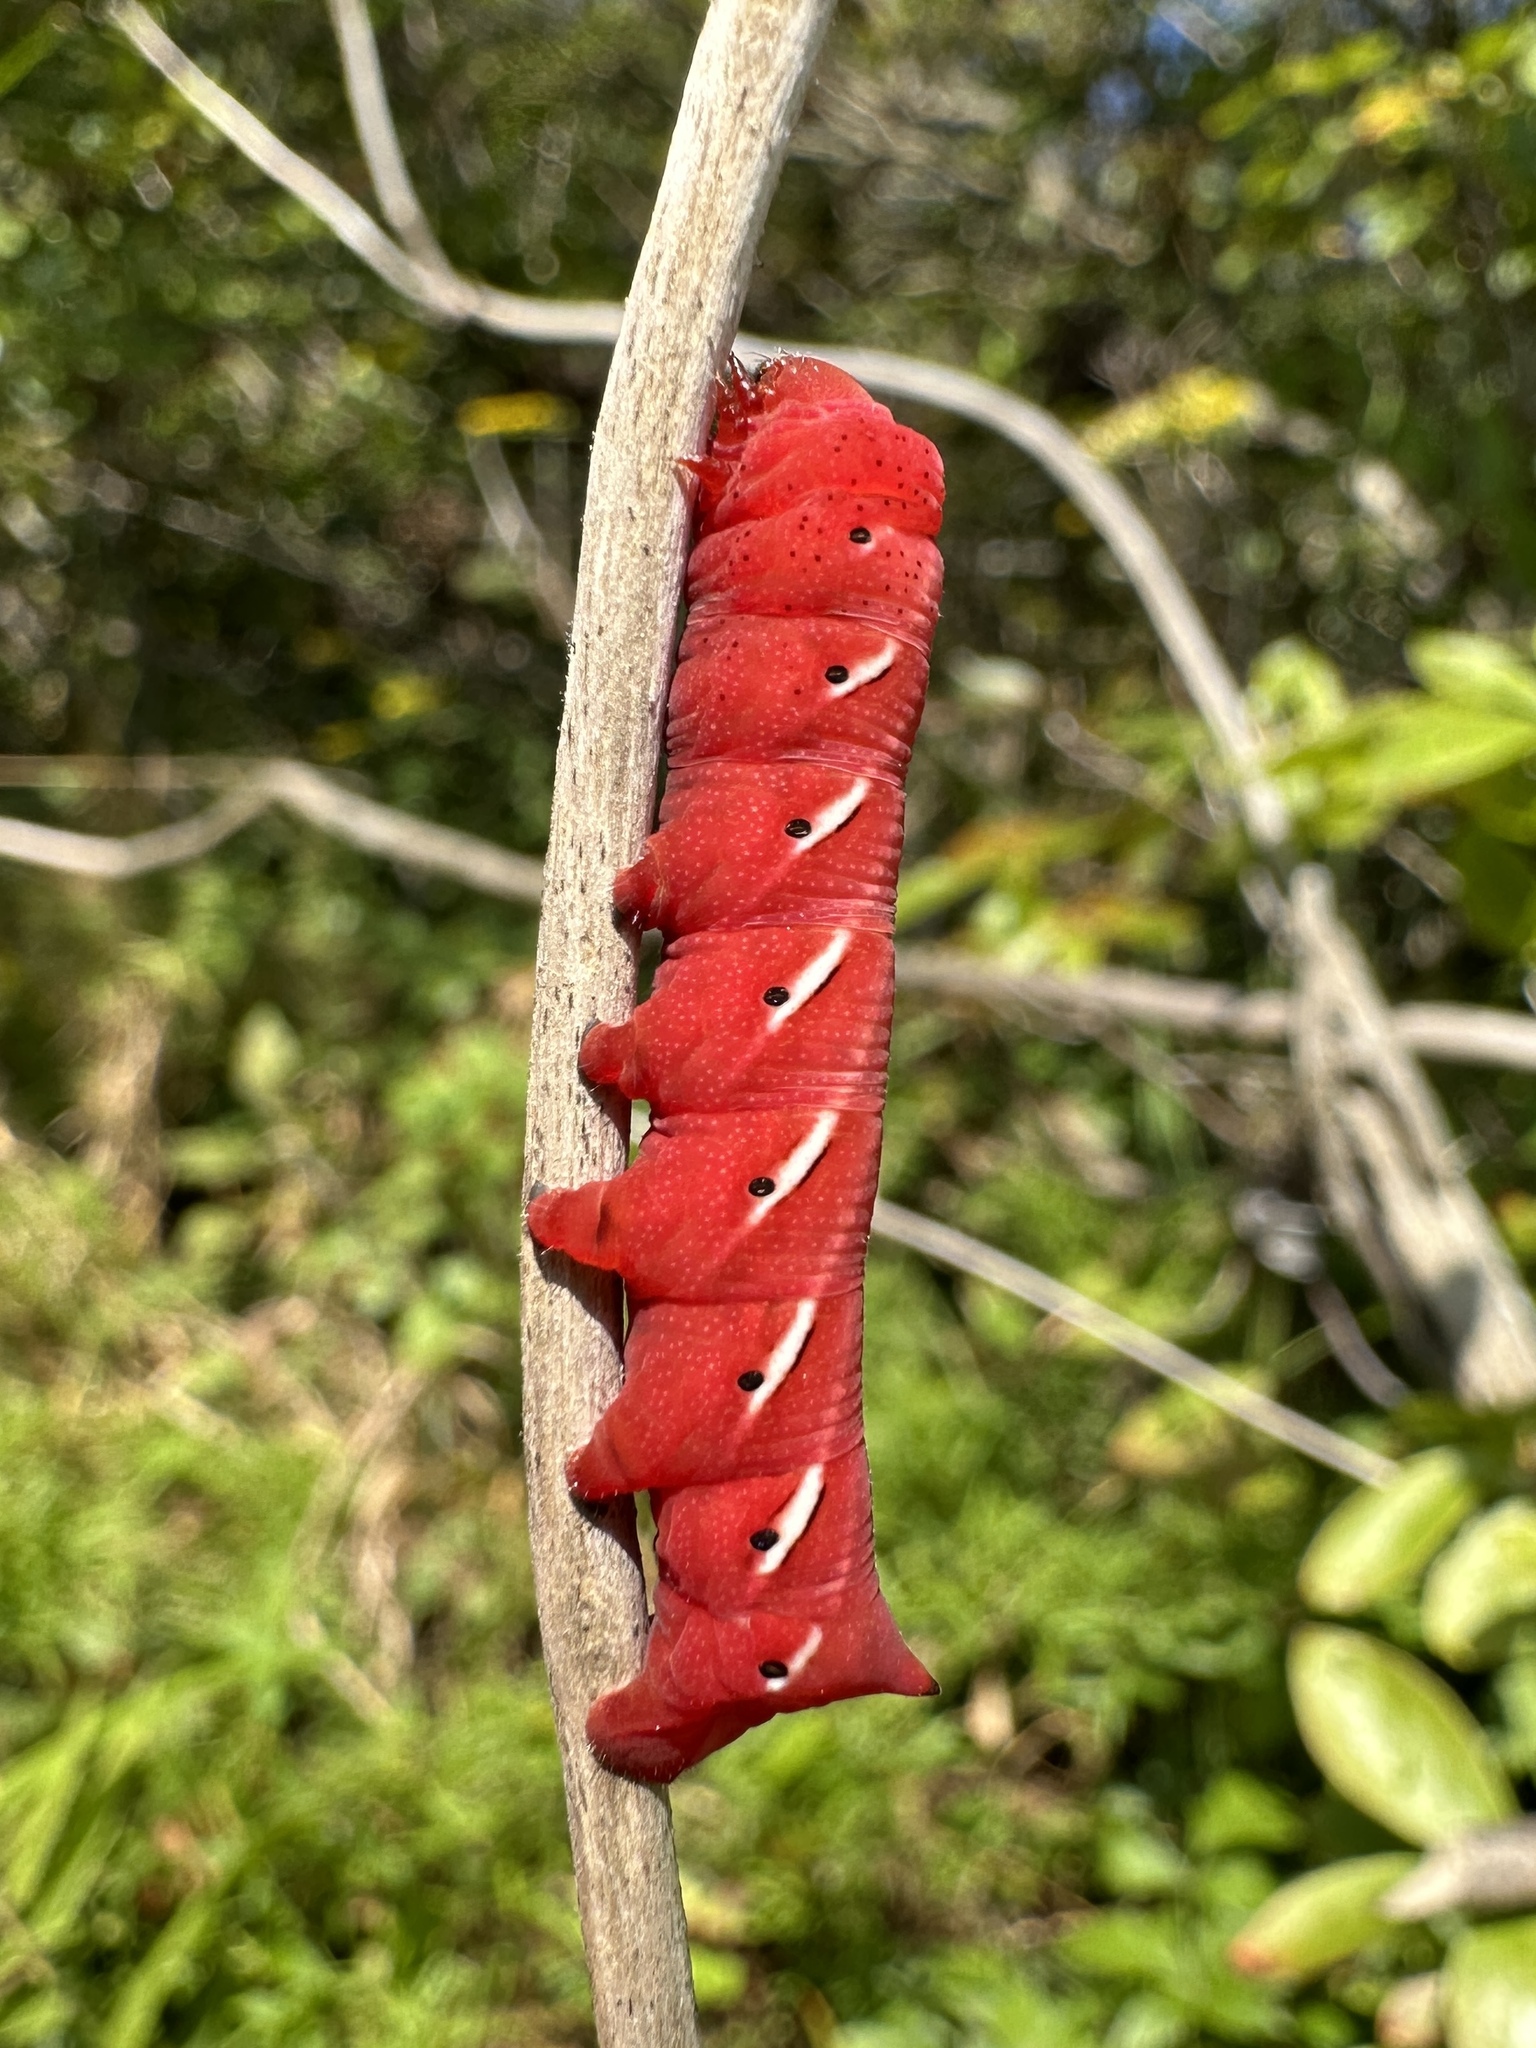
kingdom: Animalia
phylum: Arthropoda
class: Insecta
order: Lepidoptera
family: Sphingidae
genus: Eumorpha
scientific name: Eumorpha fasciatus
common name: Banded sphinx
